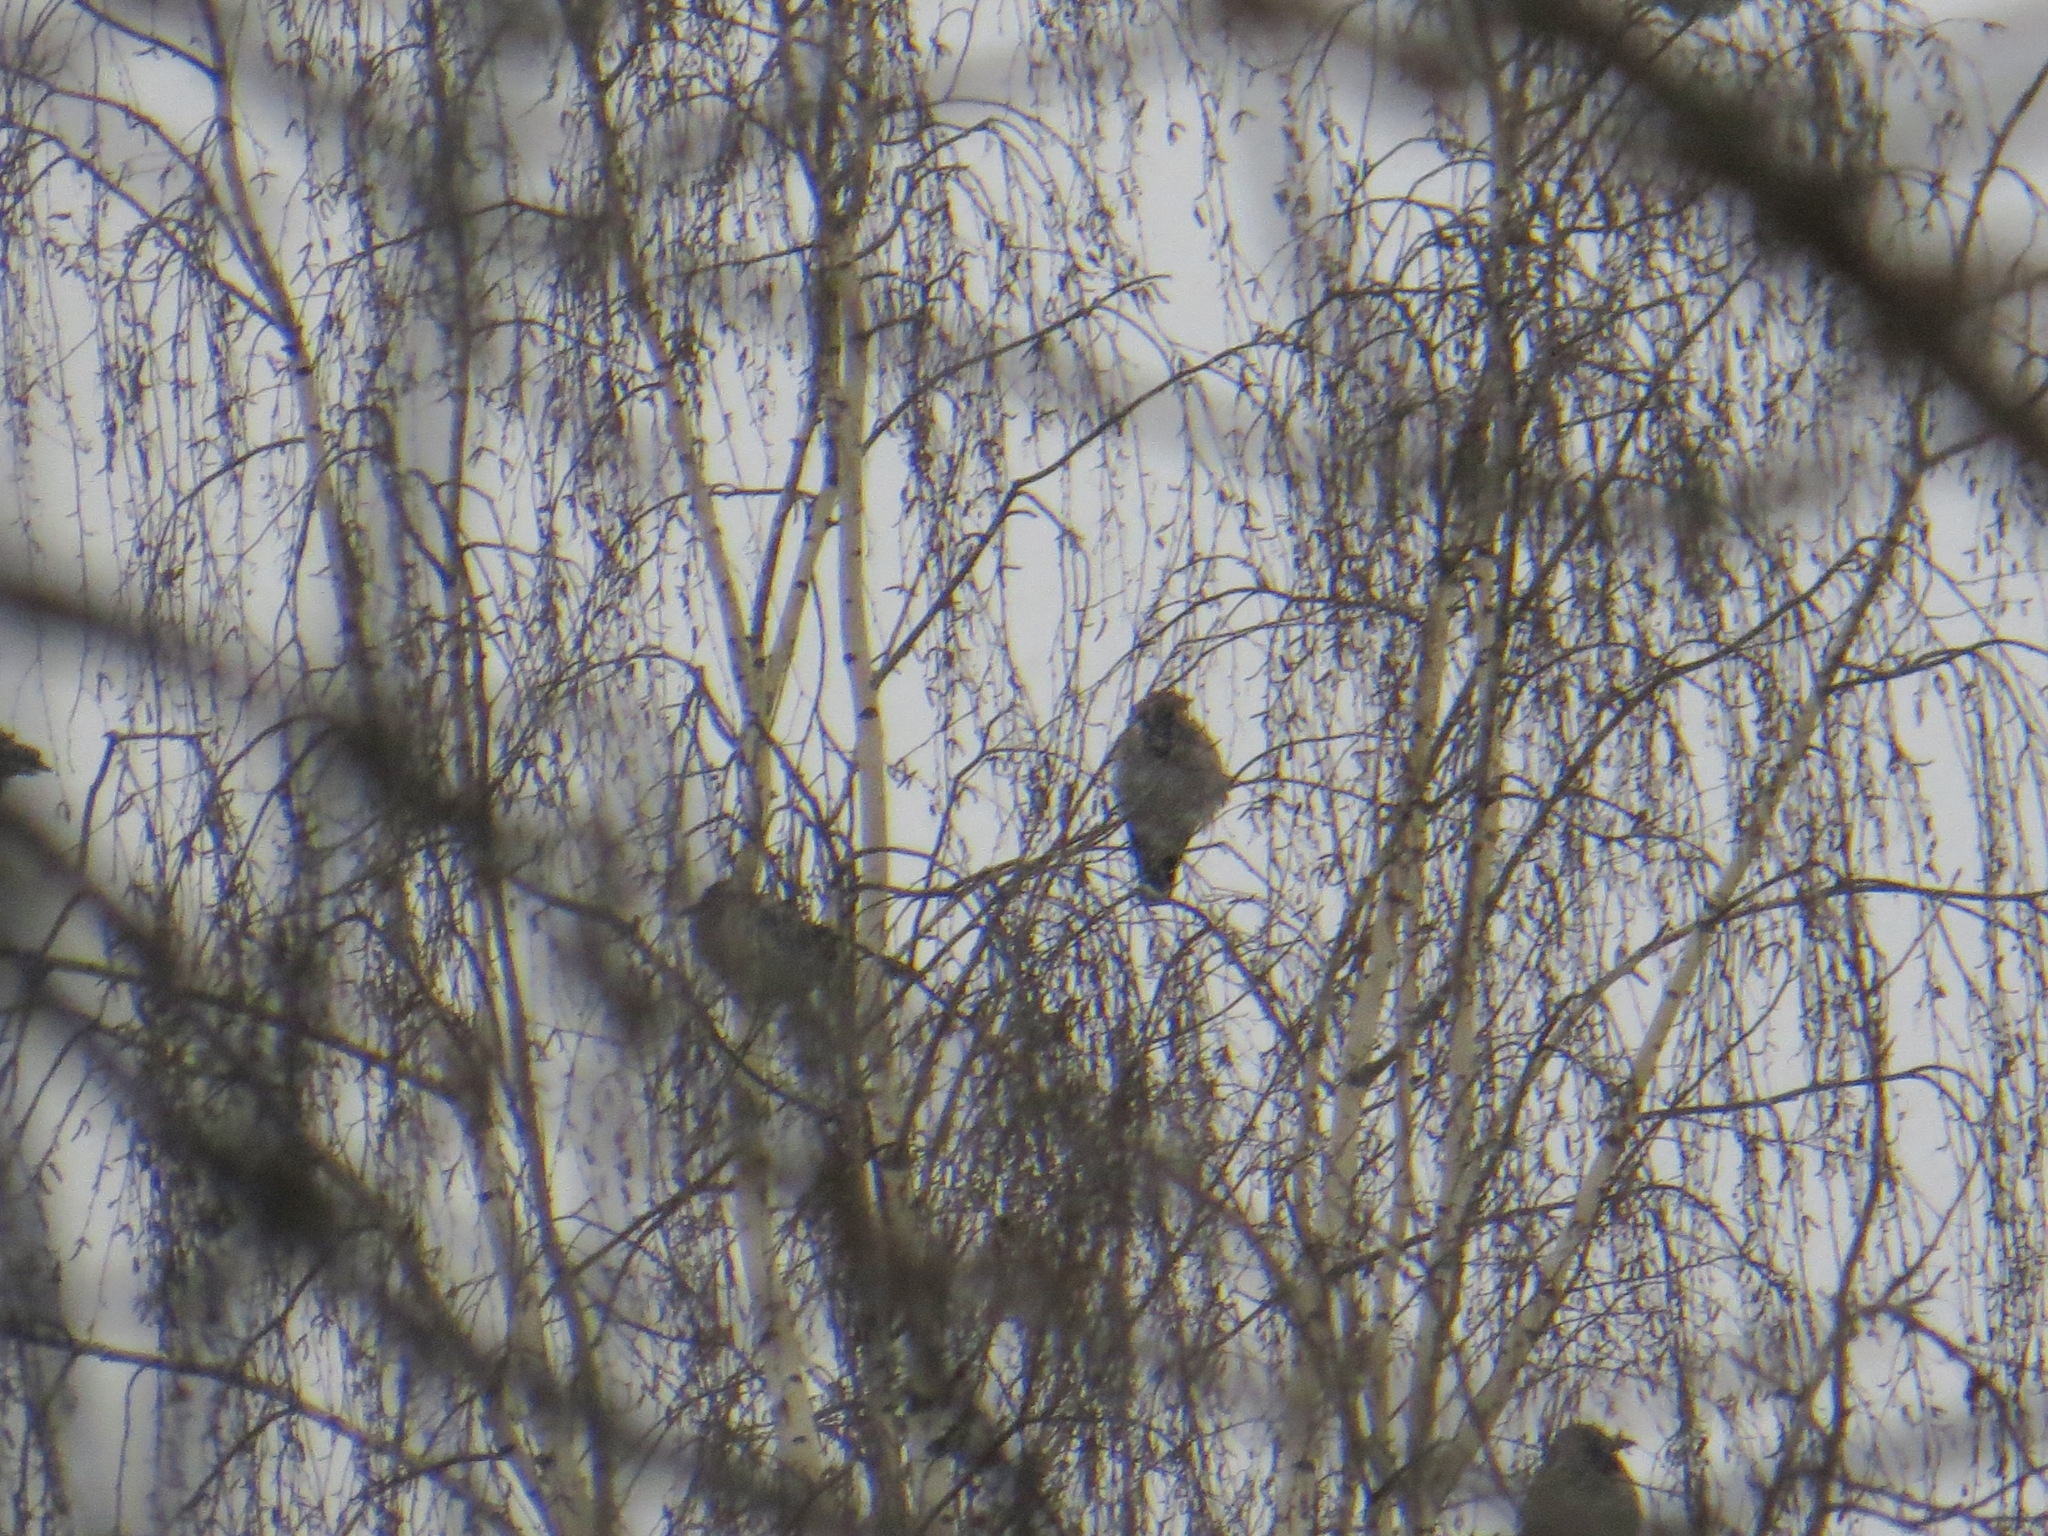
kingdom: Animalia
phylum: Chordata
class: Aves
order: Passeriformes
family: Corvidae
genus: Corvus
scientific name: Corvus cornix
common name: Hooded crow
